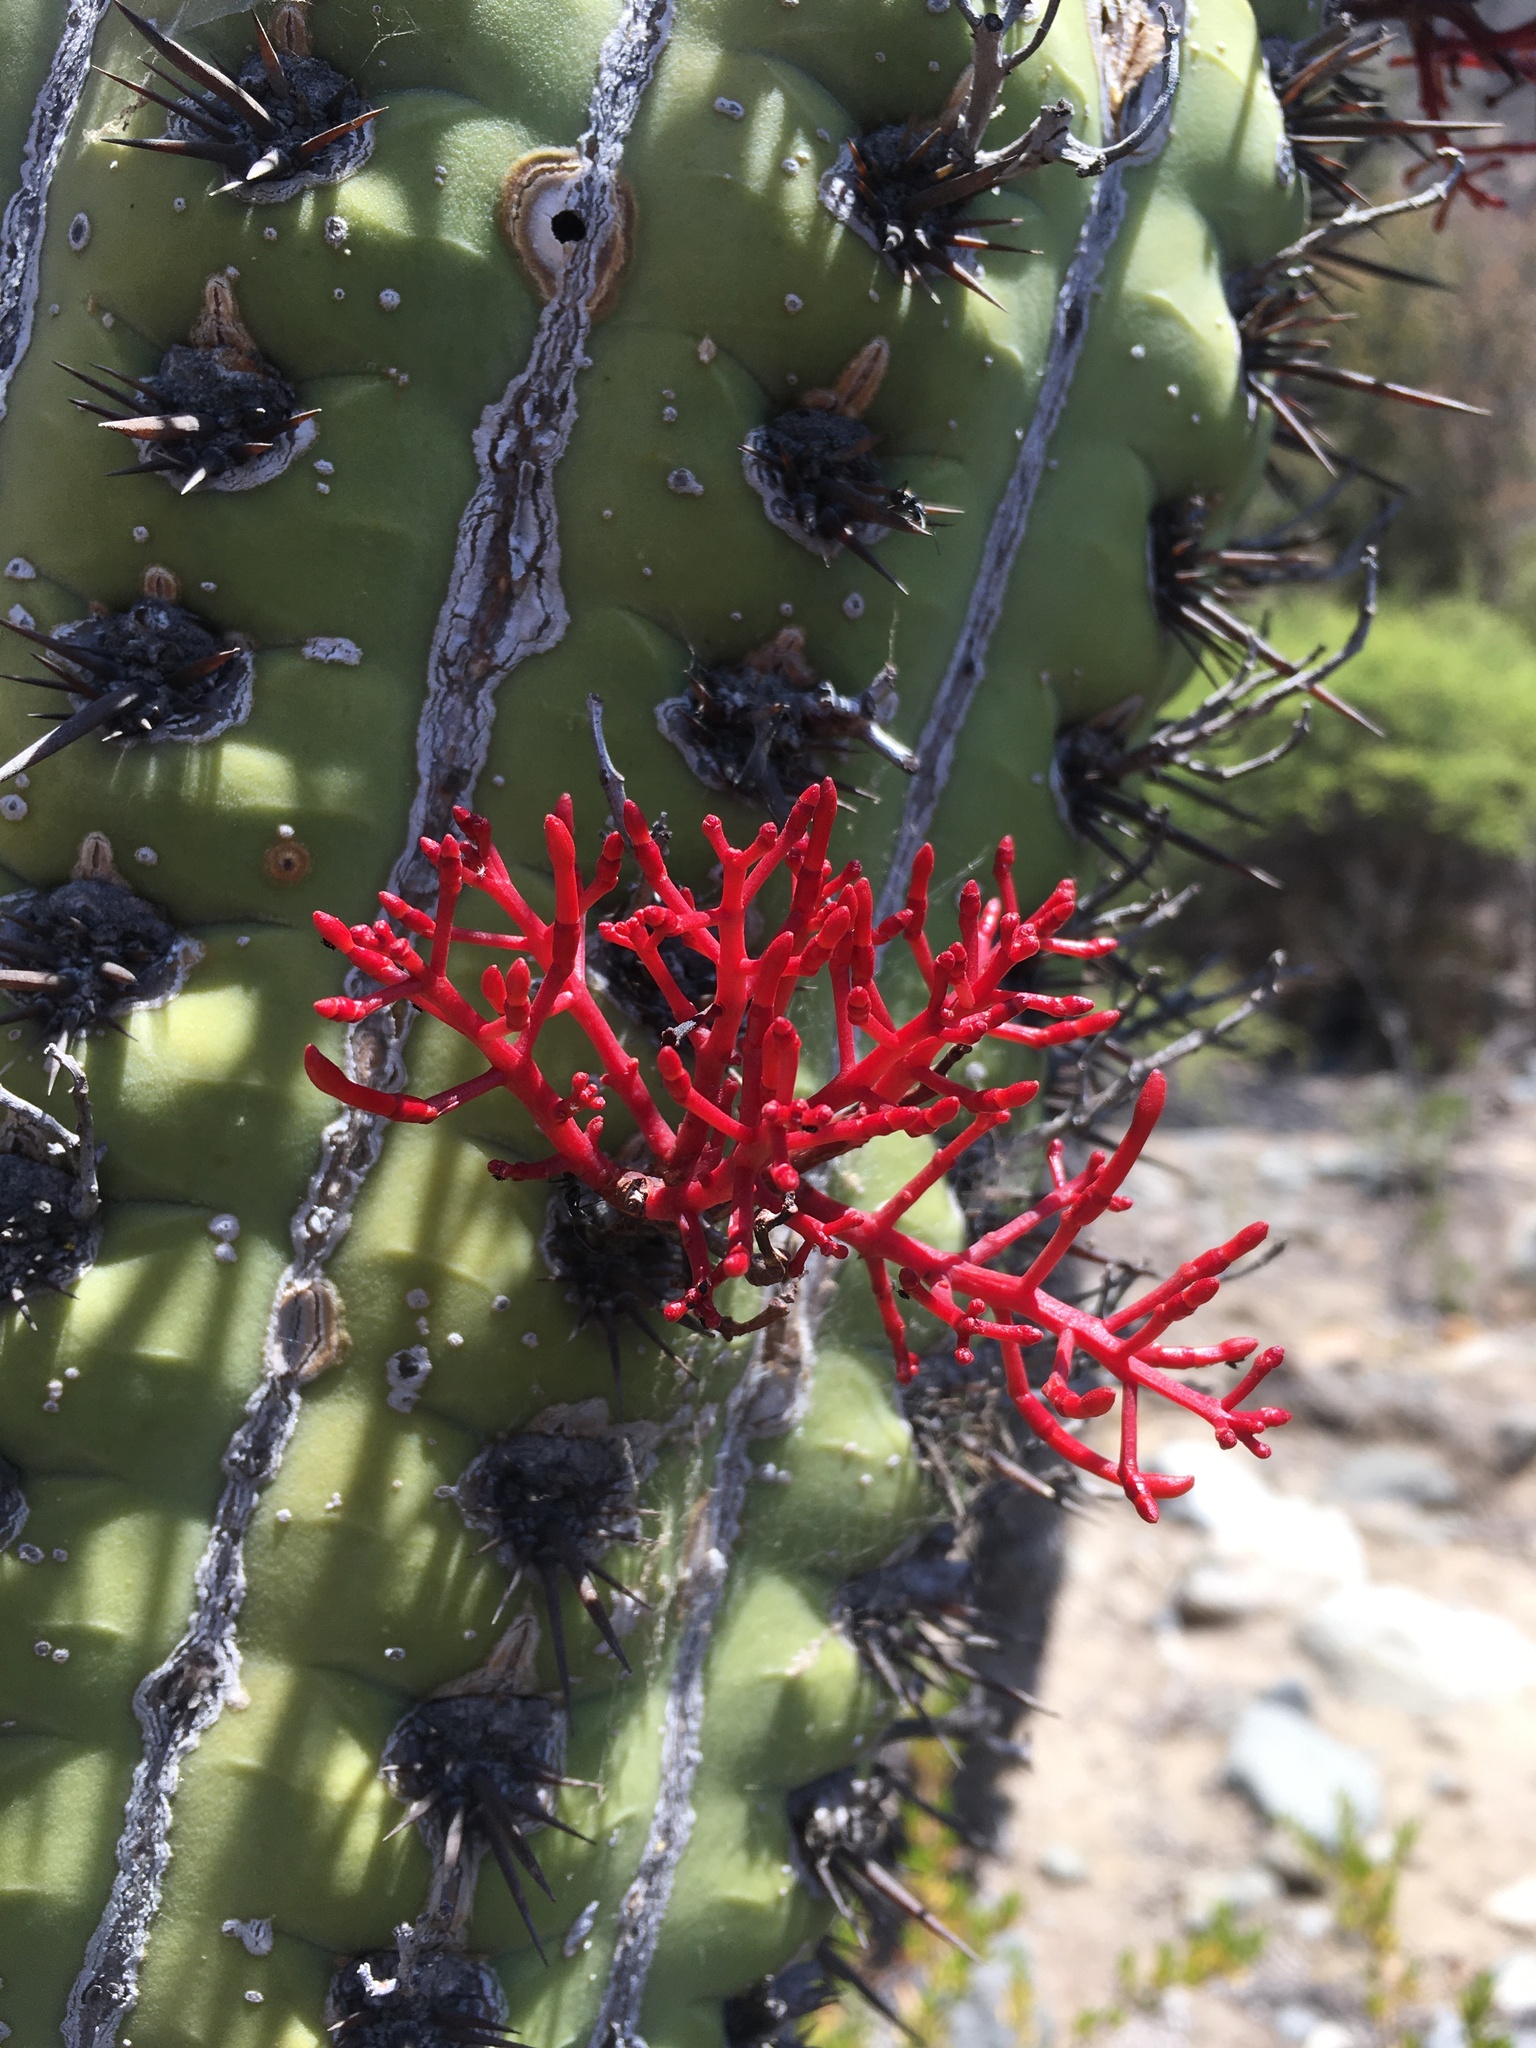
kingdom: Plantae
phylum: Tracheophyta
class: Magnoliopsida
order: Santalales
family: Loranthaceae
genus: Tristerix
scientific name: Tristerix aphyllus
